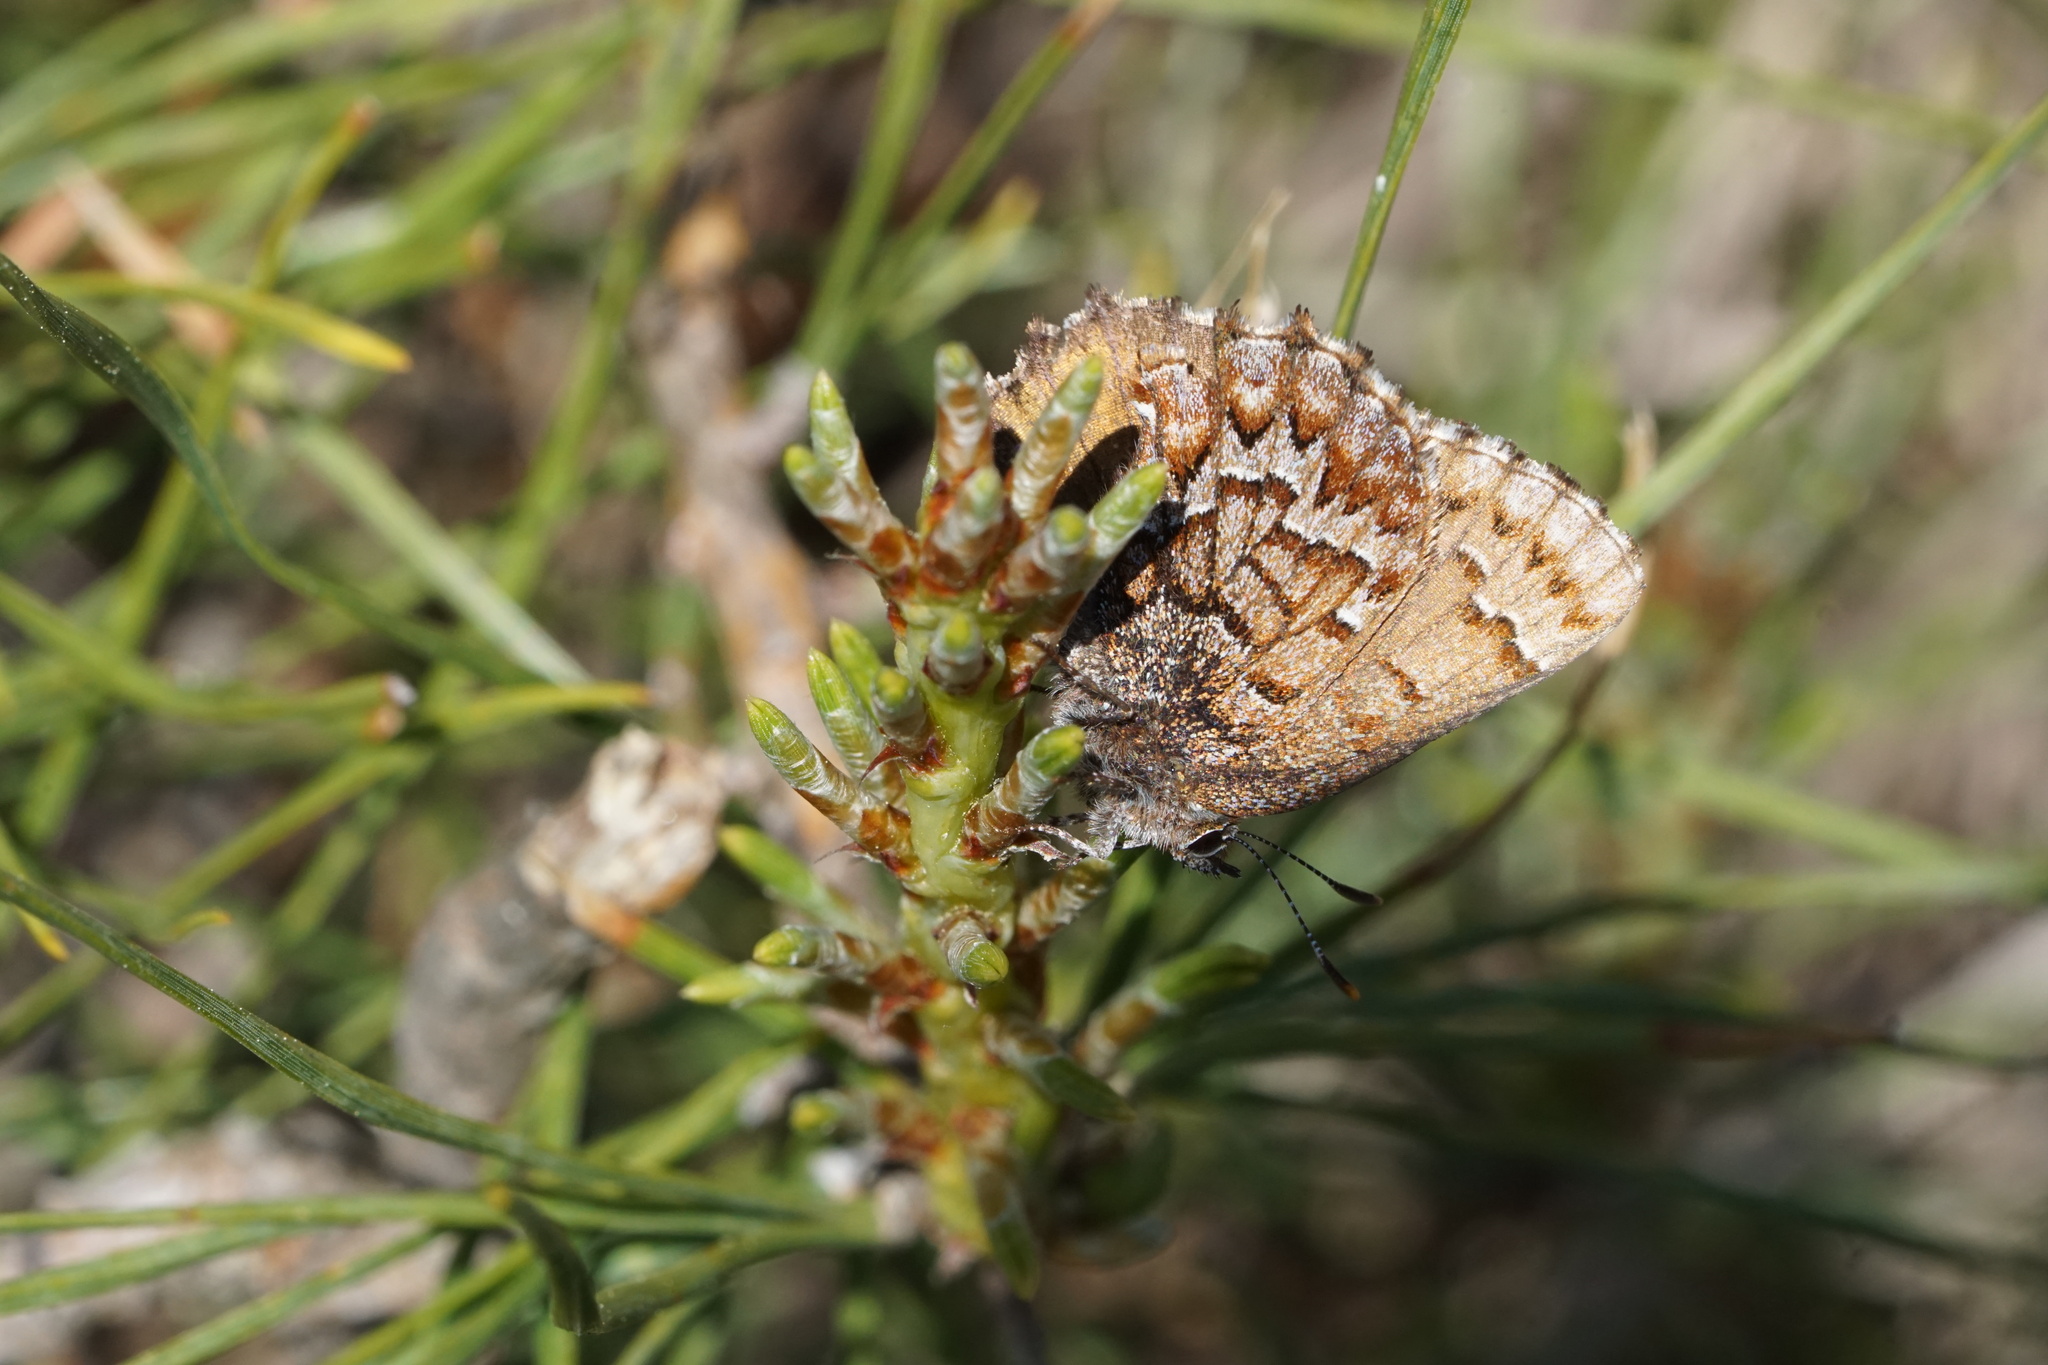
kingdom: Animalia
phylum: Arthropoda
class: Insecta
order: Lepidoptera
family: Lycaenidae
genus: Incisalia
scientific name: Incisalia niphon
